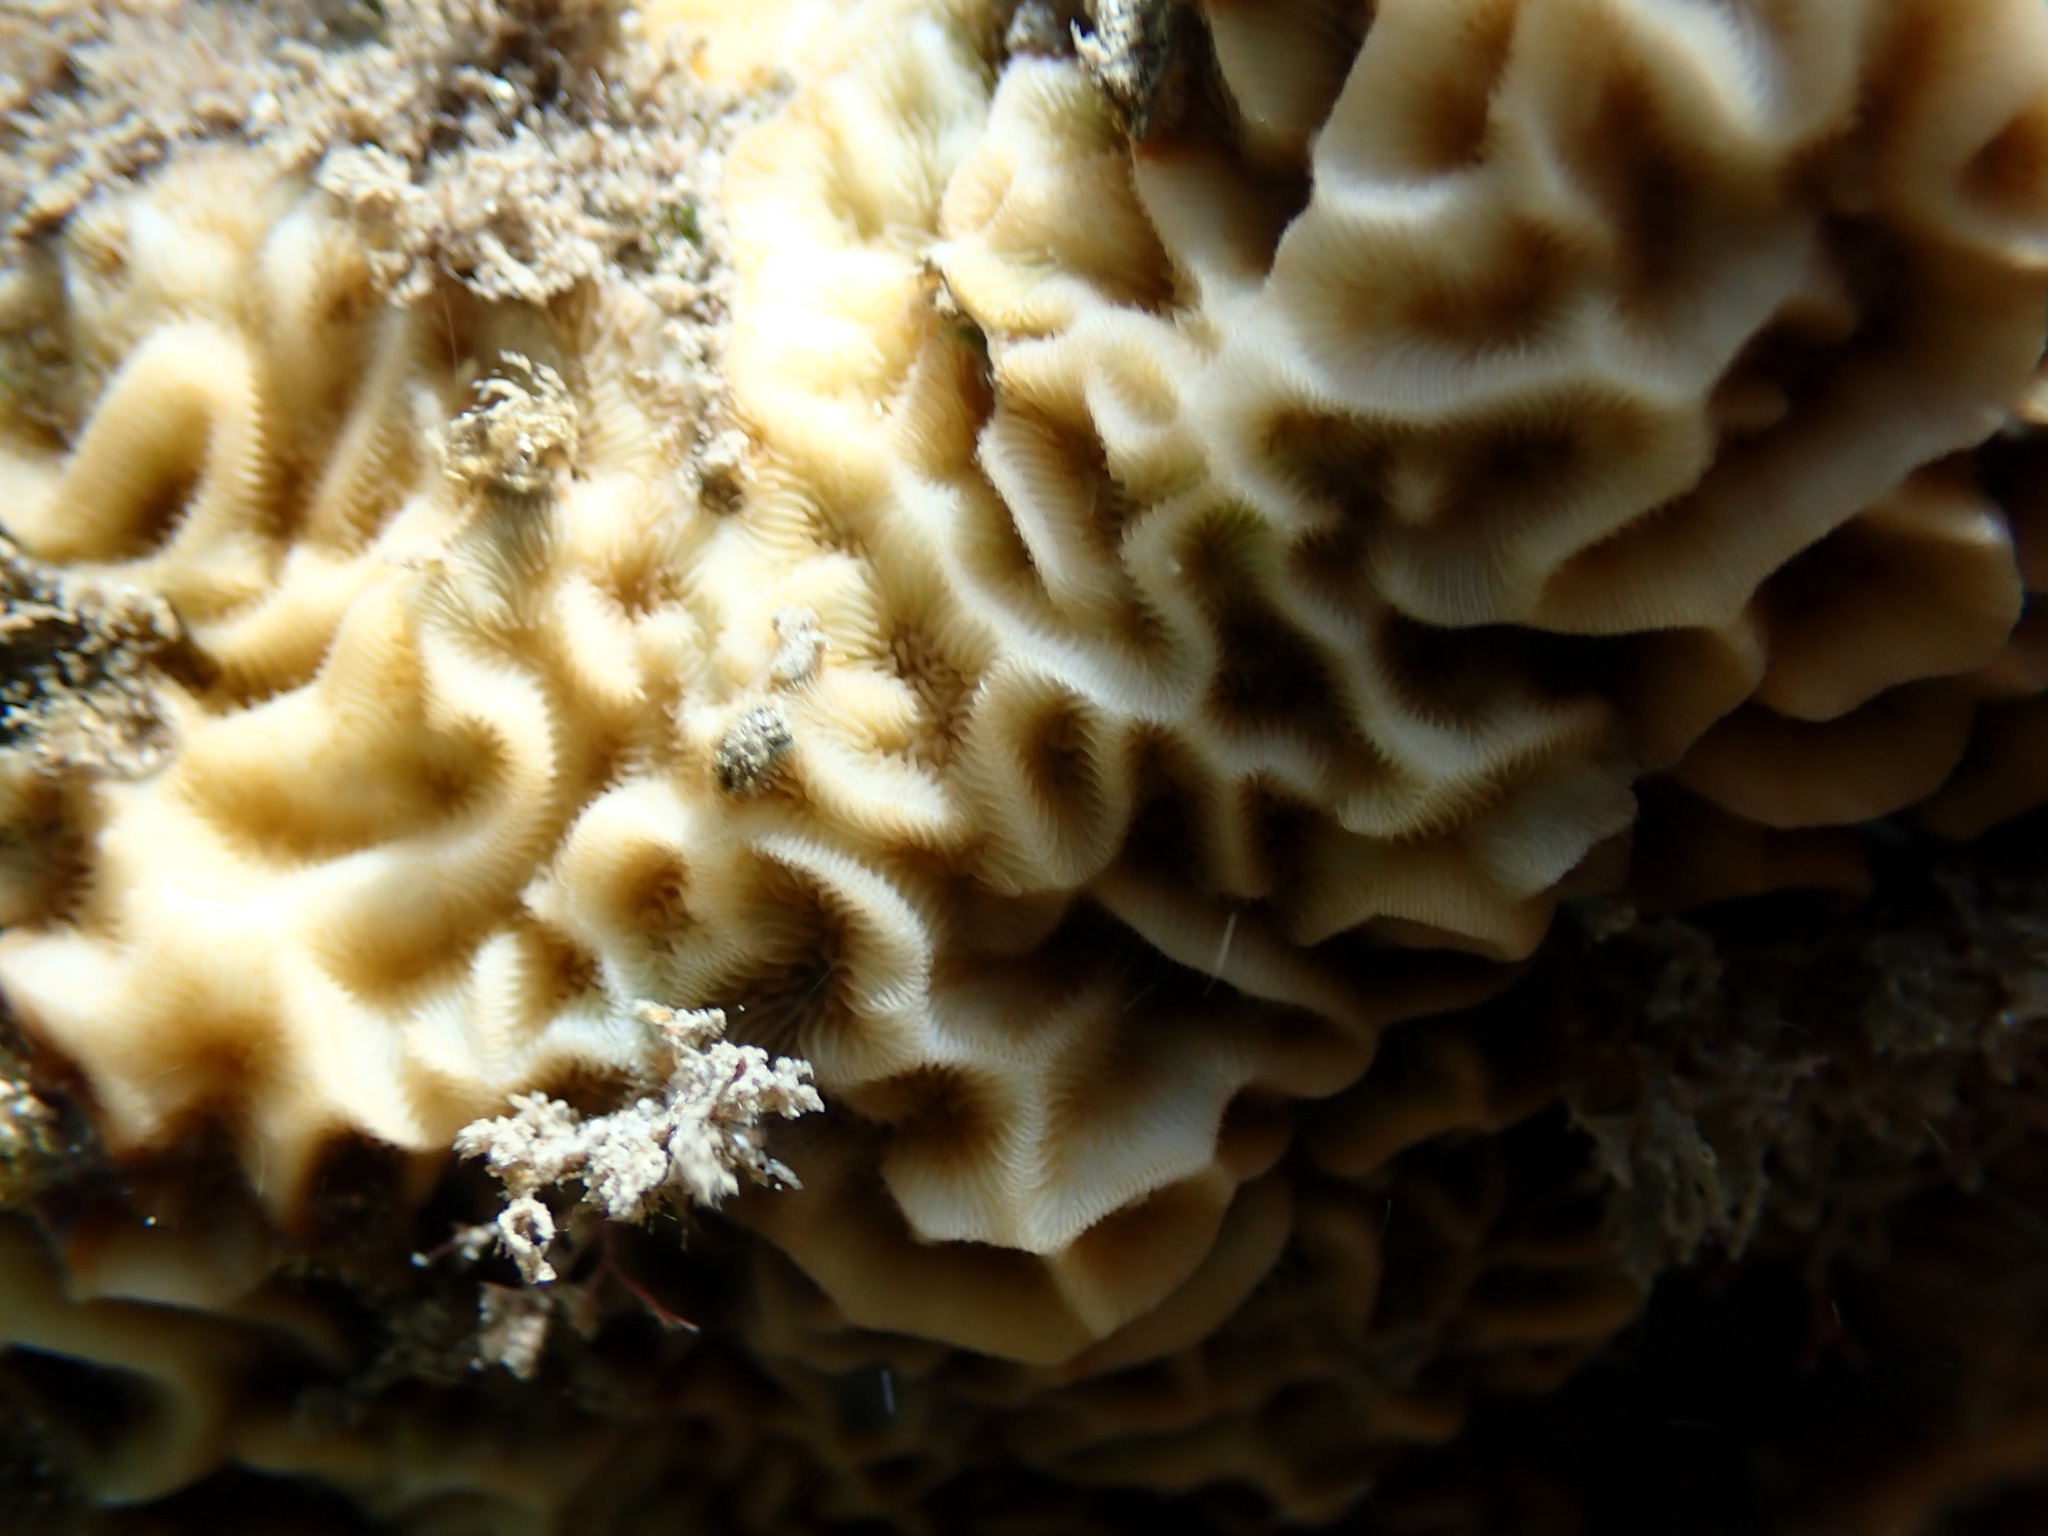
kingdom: Animalia
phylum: Cnidaria
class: Anthozoa
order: Scleractinia
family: Agariciidae
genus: Pavona
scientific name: Pavona varians
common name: Leaf coral
